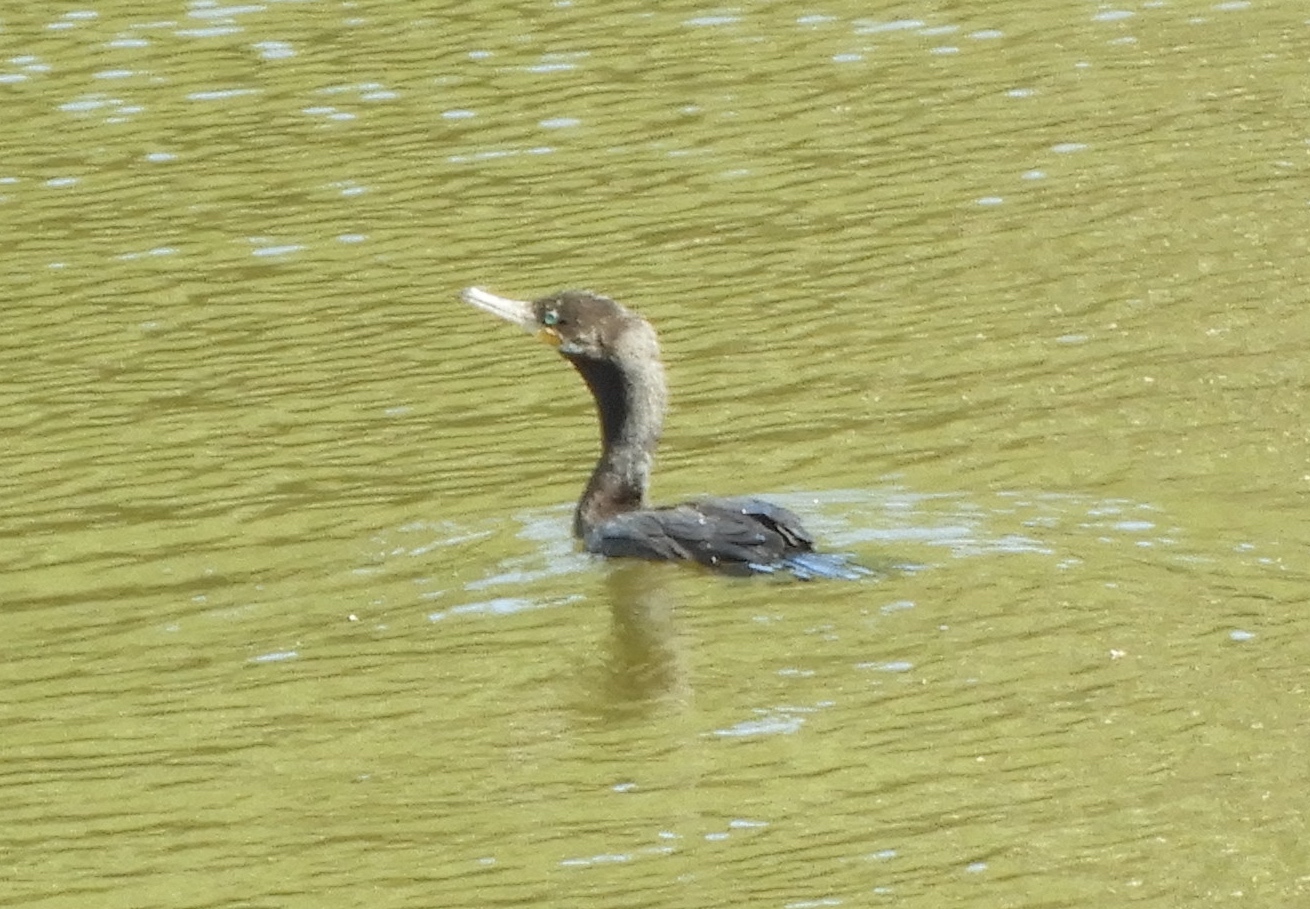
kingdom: Animalia
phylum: Chordata
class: Aves
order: Suliformes
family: Phalacrocoracidae
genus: Phalacrocorax
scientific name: Phalacrocorax brasilianus
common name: Neotropic cormorant
